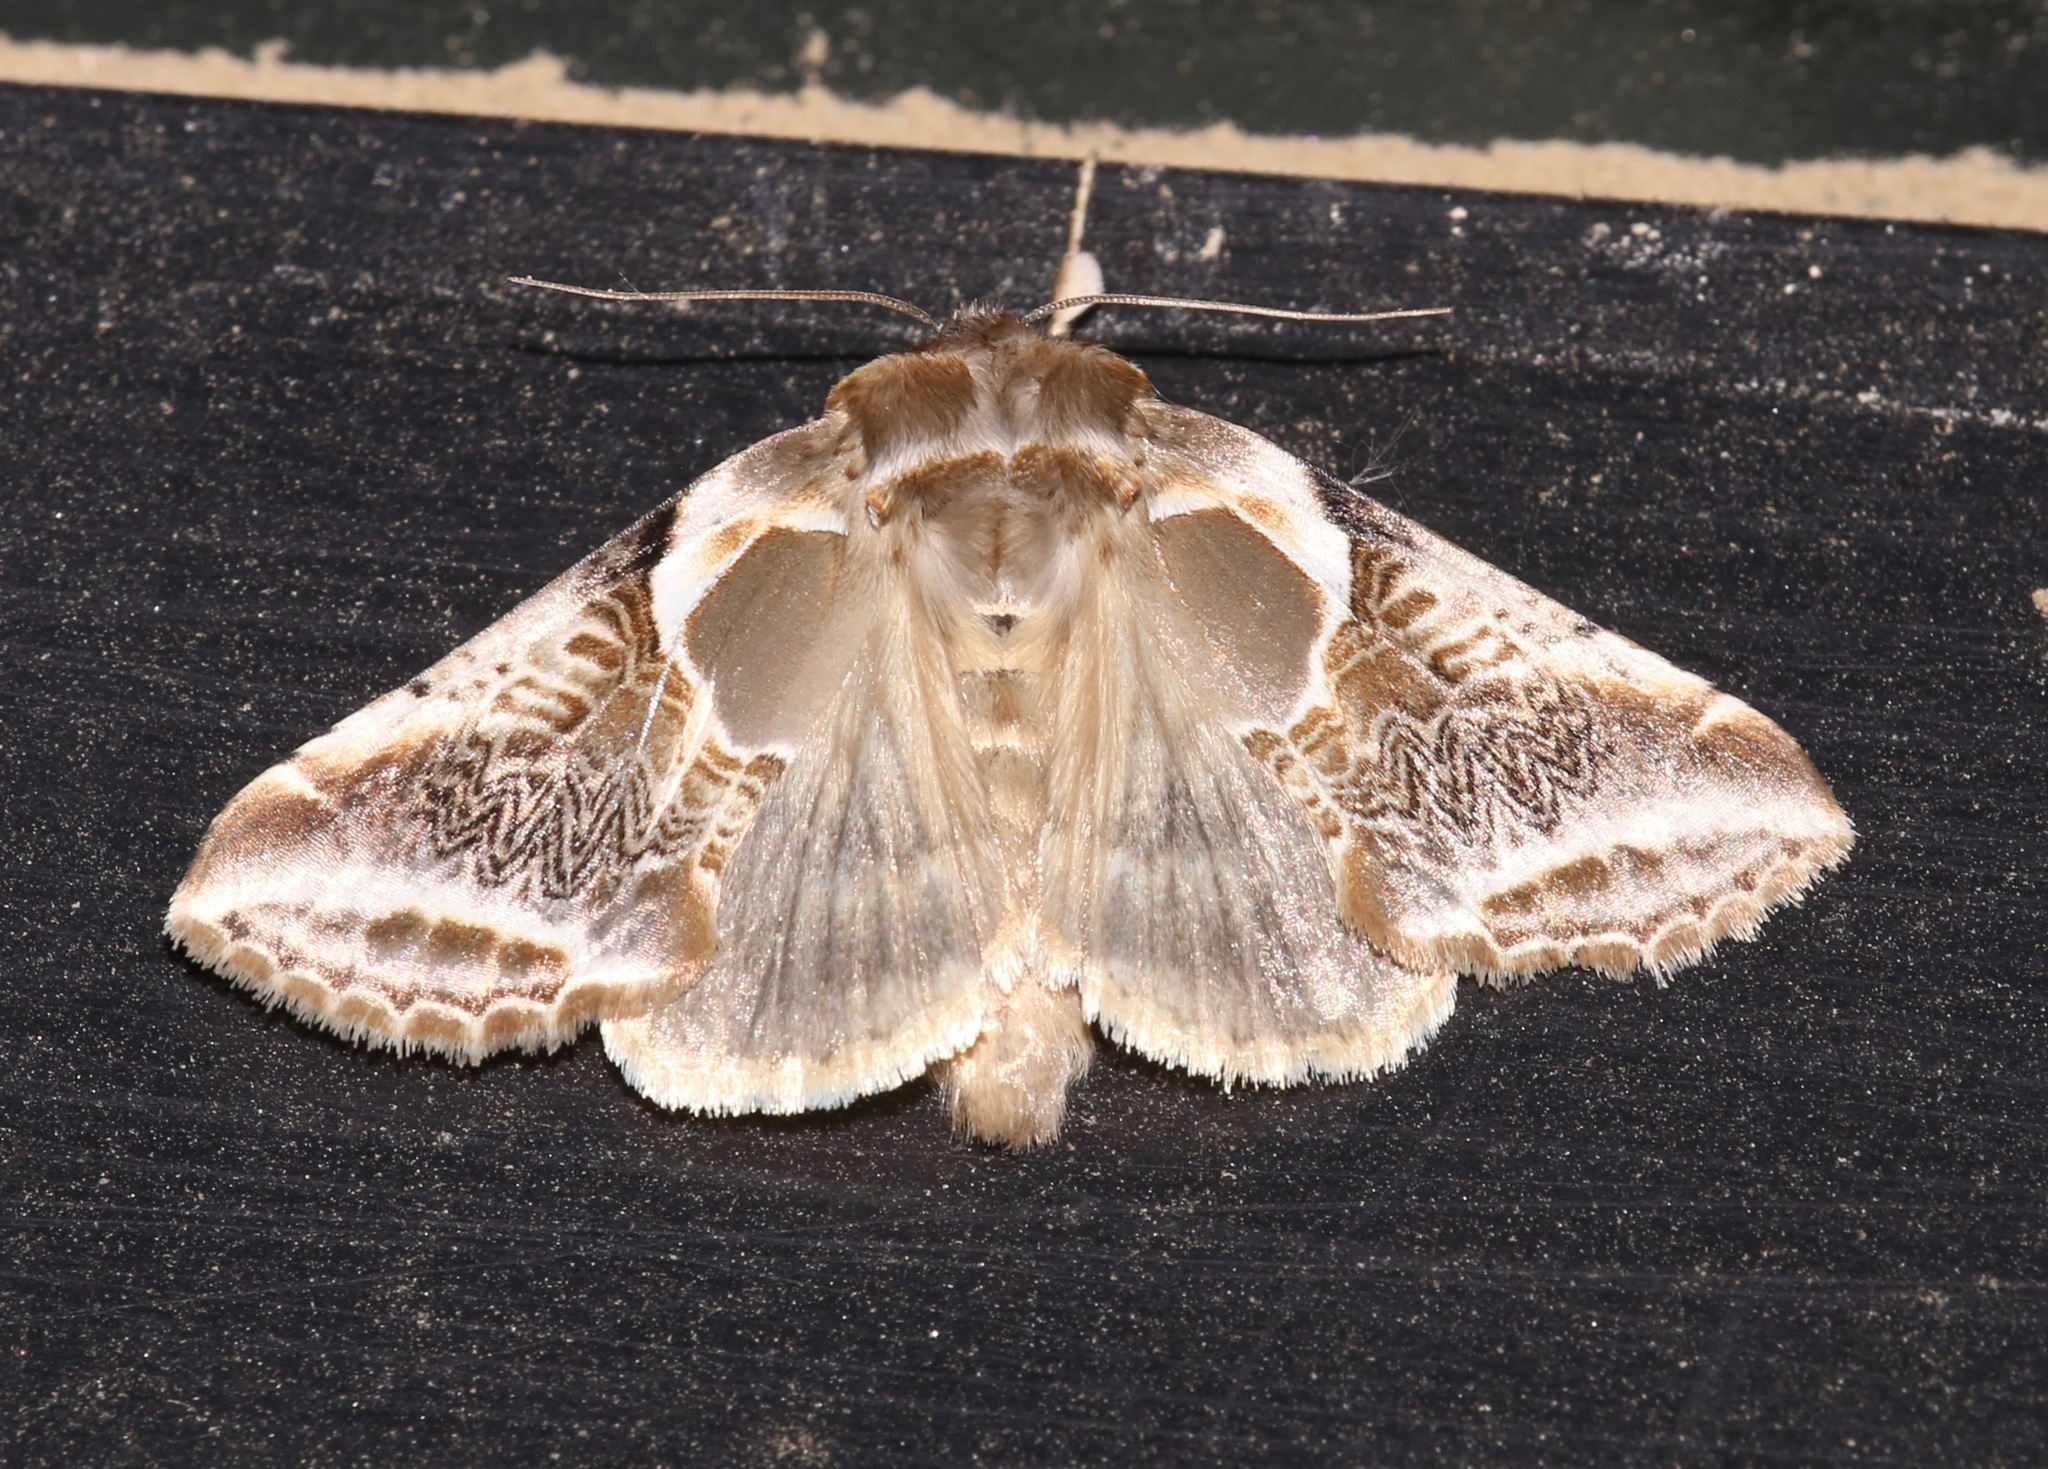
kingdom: Animalia
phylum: Arthropoda
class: Insecta
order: Lepidoptera
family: Drepanidae
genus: Habrosyne
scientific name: Habrosyne scripta
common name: Lettered habrosyne moth
